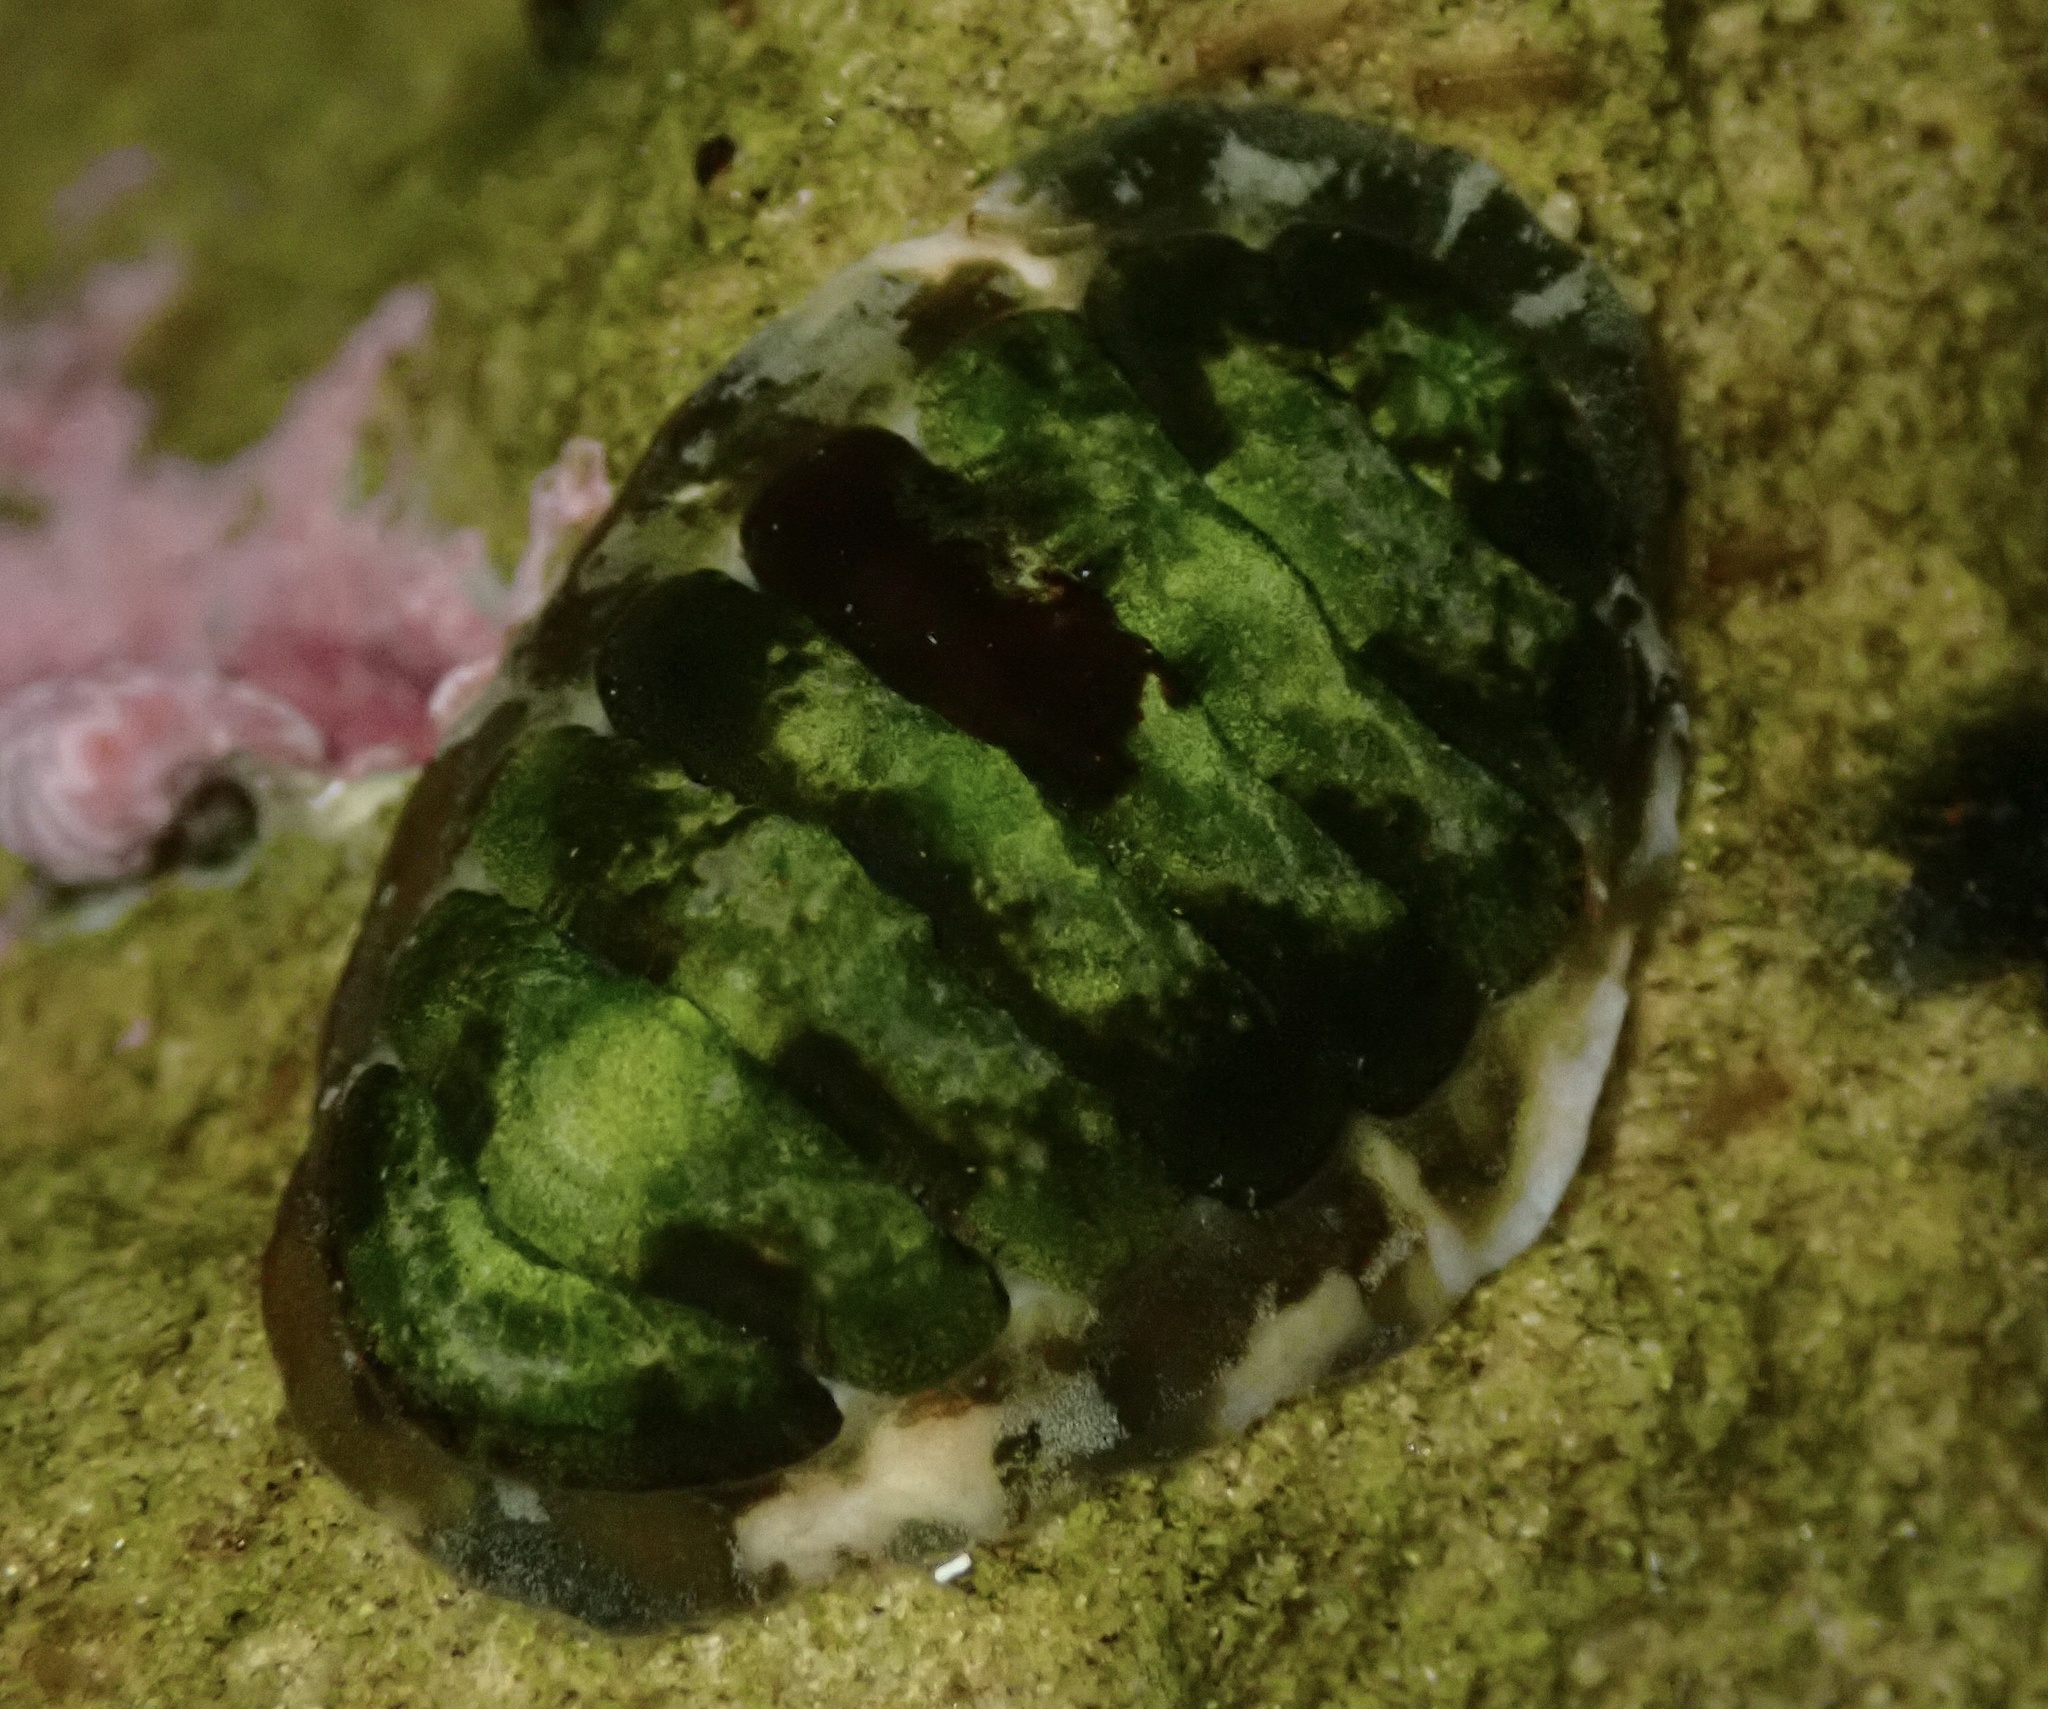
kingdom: Animalia
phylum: Mollusca
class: Polyplacophora
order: Chitonida
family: Tonicellidae
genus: Cyanoplax
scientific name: Cyanoplax hartwegii
